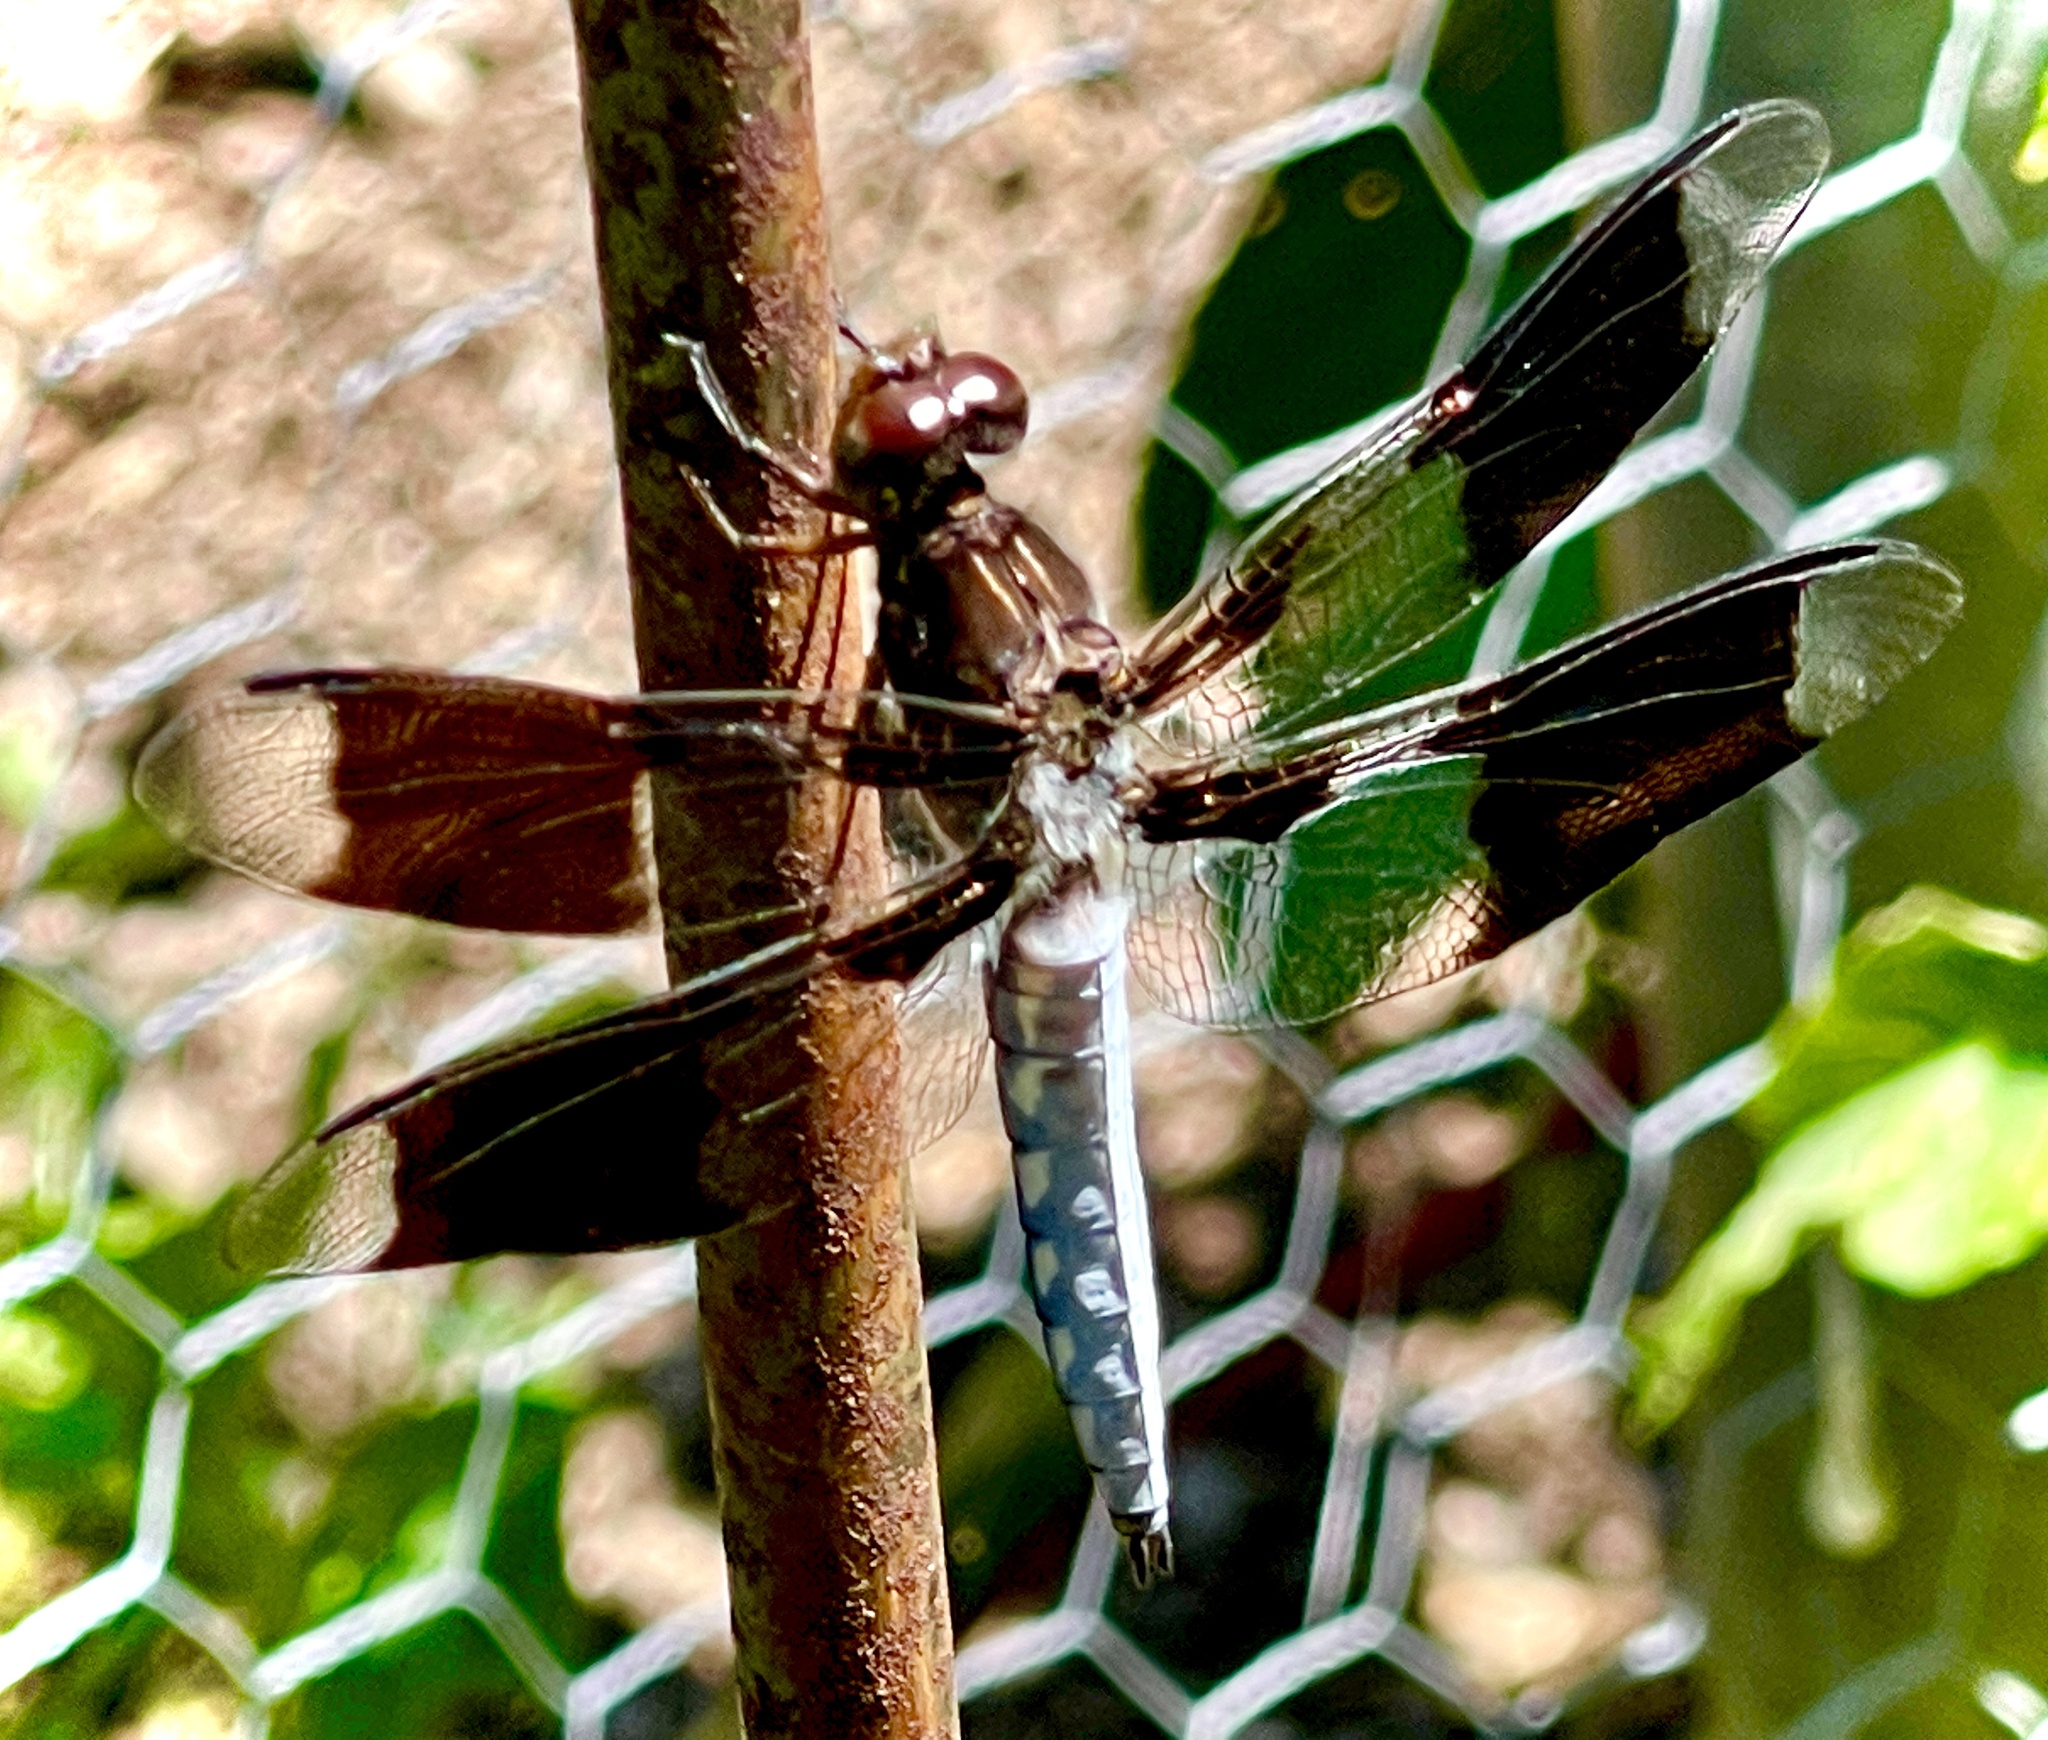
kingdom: Animalia
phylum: Arthropoda
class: Insecta
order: Odonata
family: Libellulidae
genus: Plathemis
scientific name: Plathemis lydia
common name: Common whitetail
